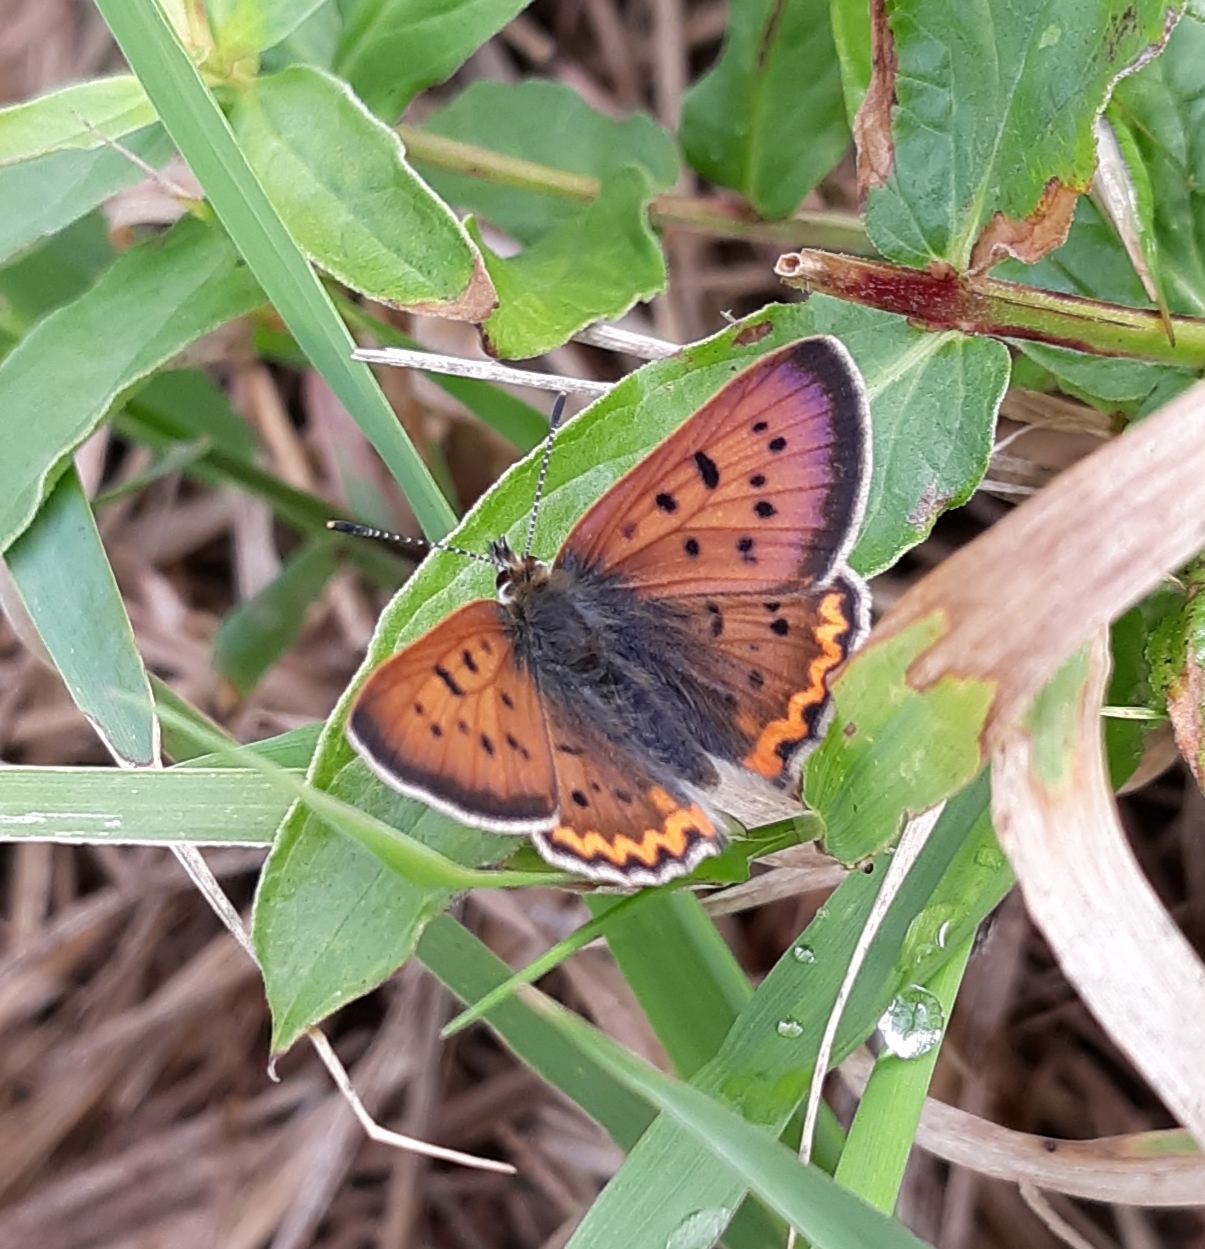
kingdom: Animalia
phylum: Arthropoda
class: Insecta
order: Lepidoptera
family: Lycaenidae
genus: Tharsalea
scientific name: Tharsalea helloides
